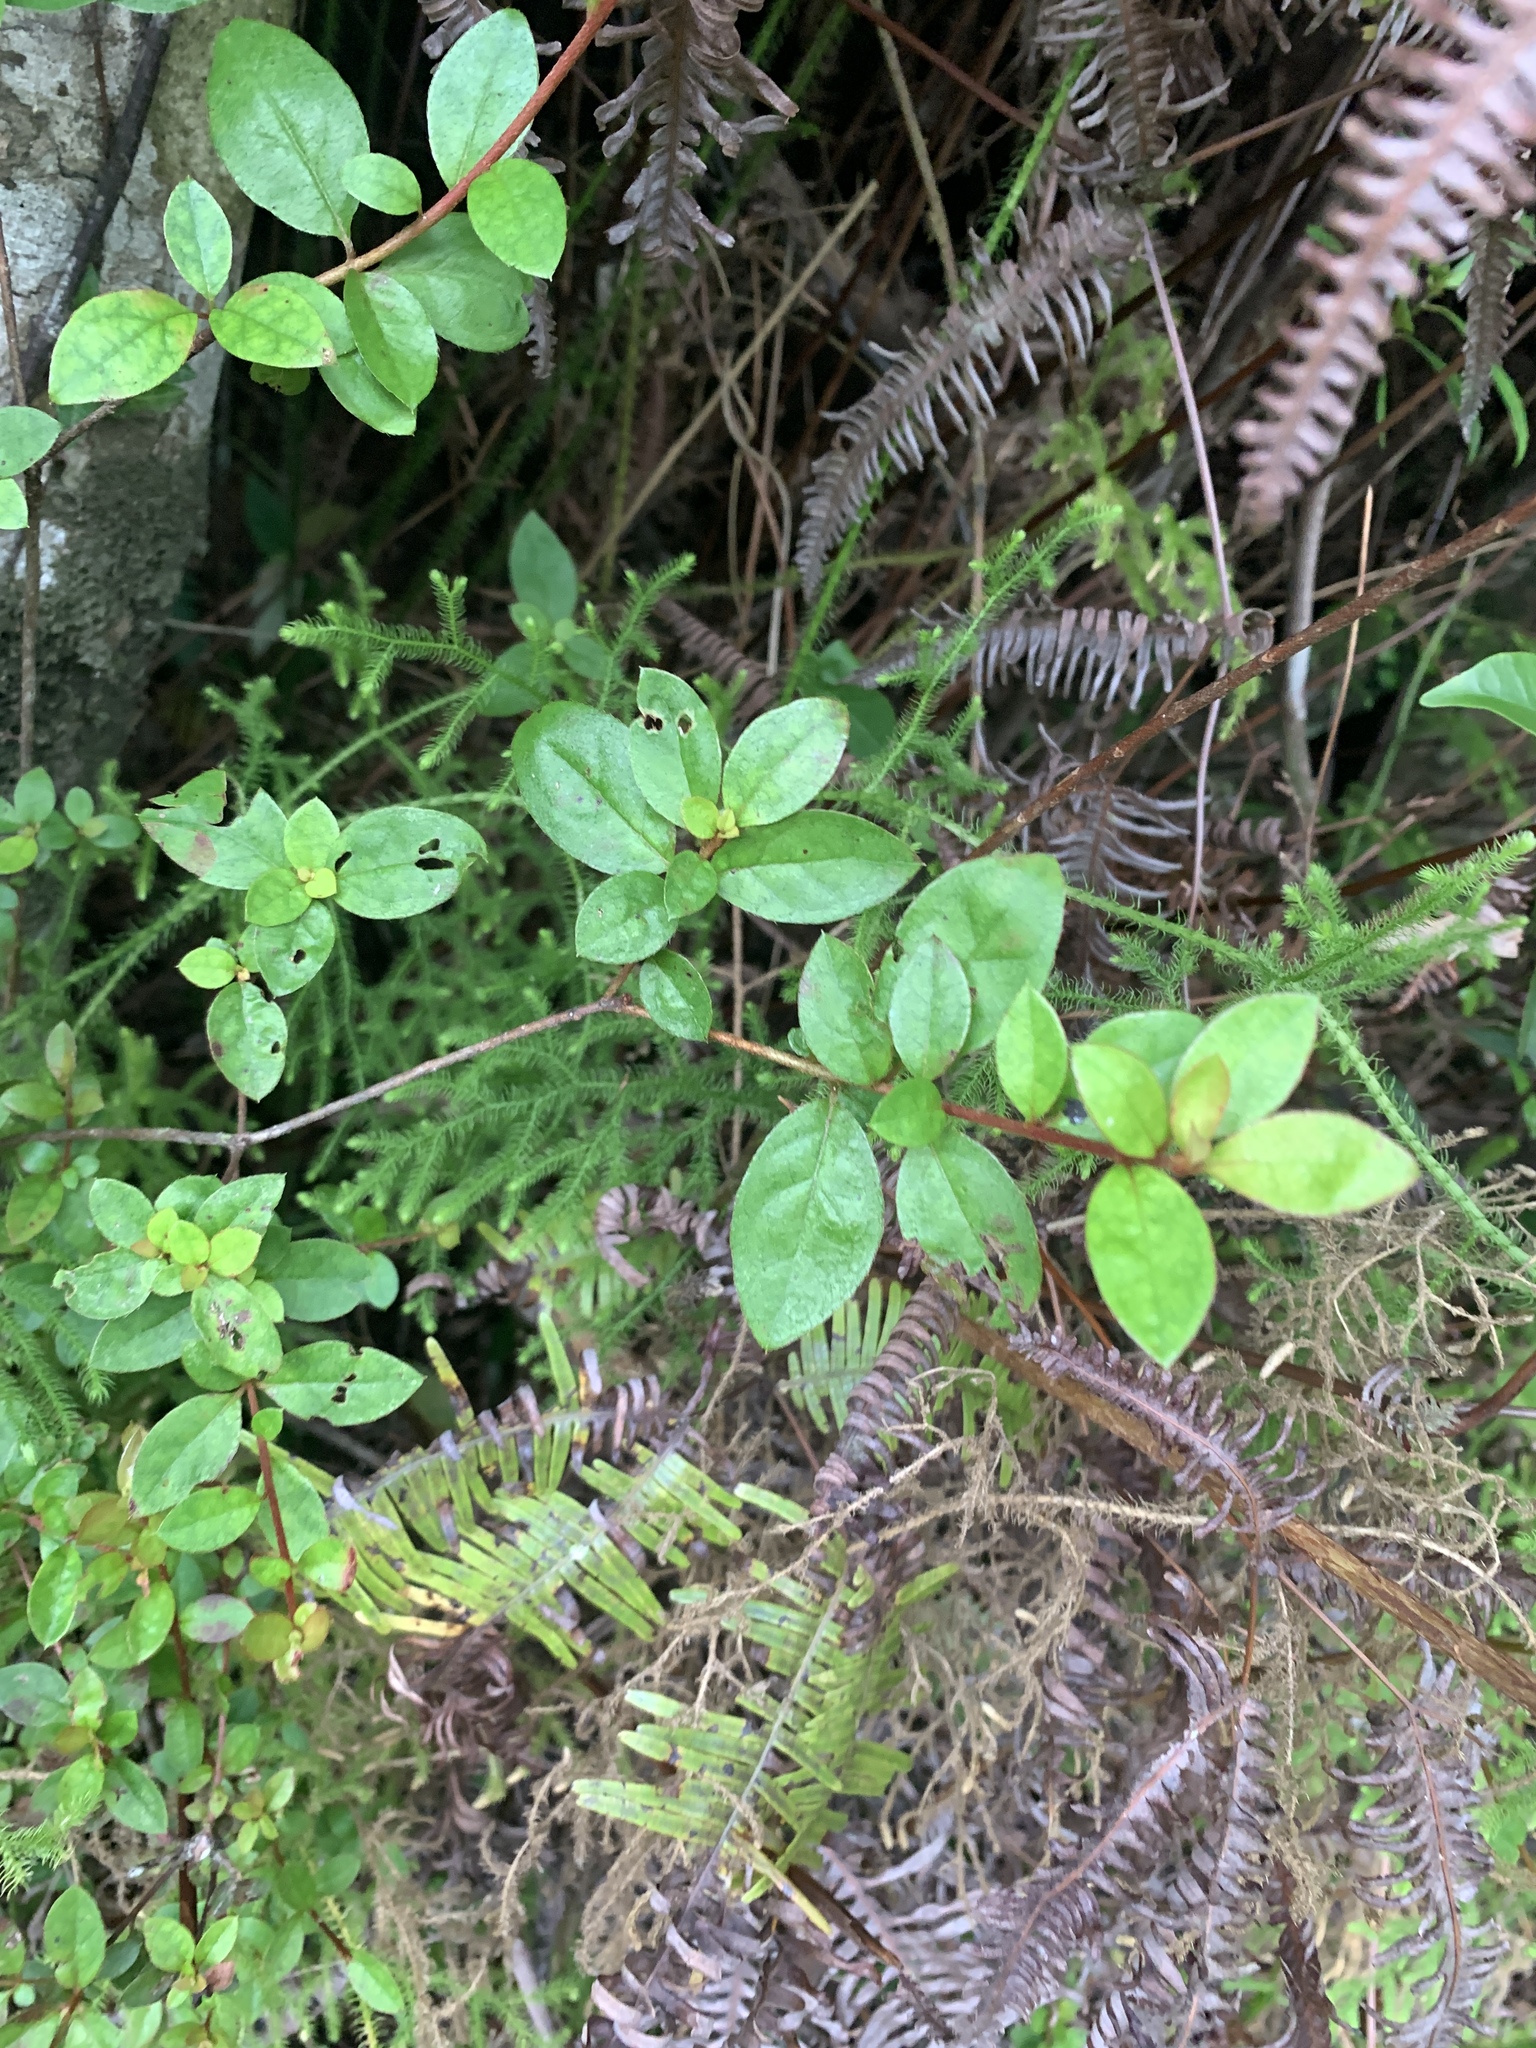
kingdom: Plantae
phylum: Tracheophyta
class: Magnoliopsida
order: Ericales
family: Ericaceae
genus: Rhododendron
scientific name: Rhododendron simsii
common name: Rhododendron
